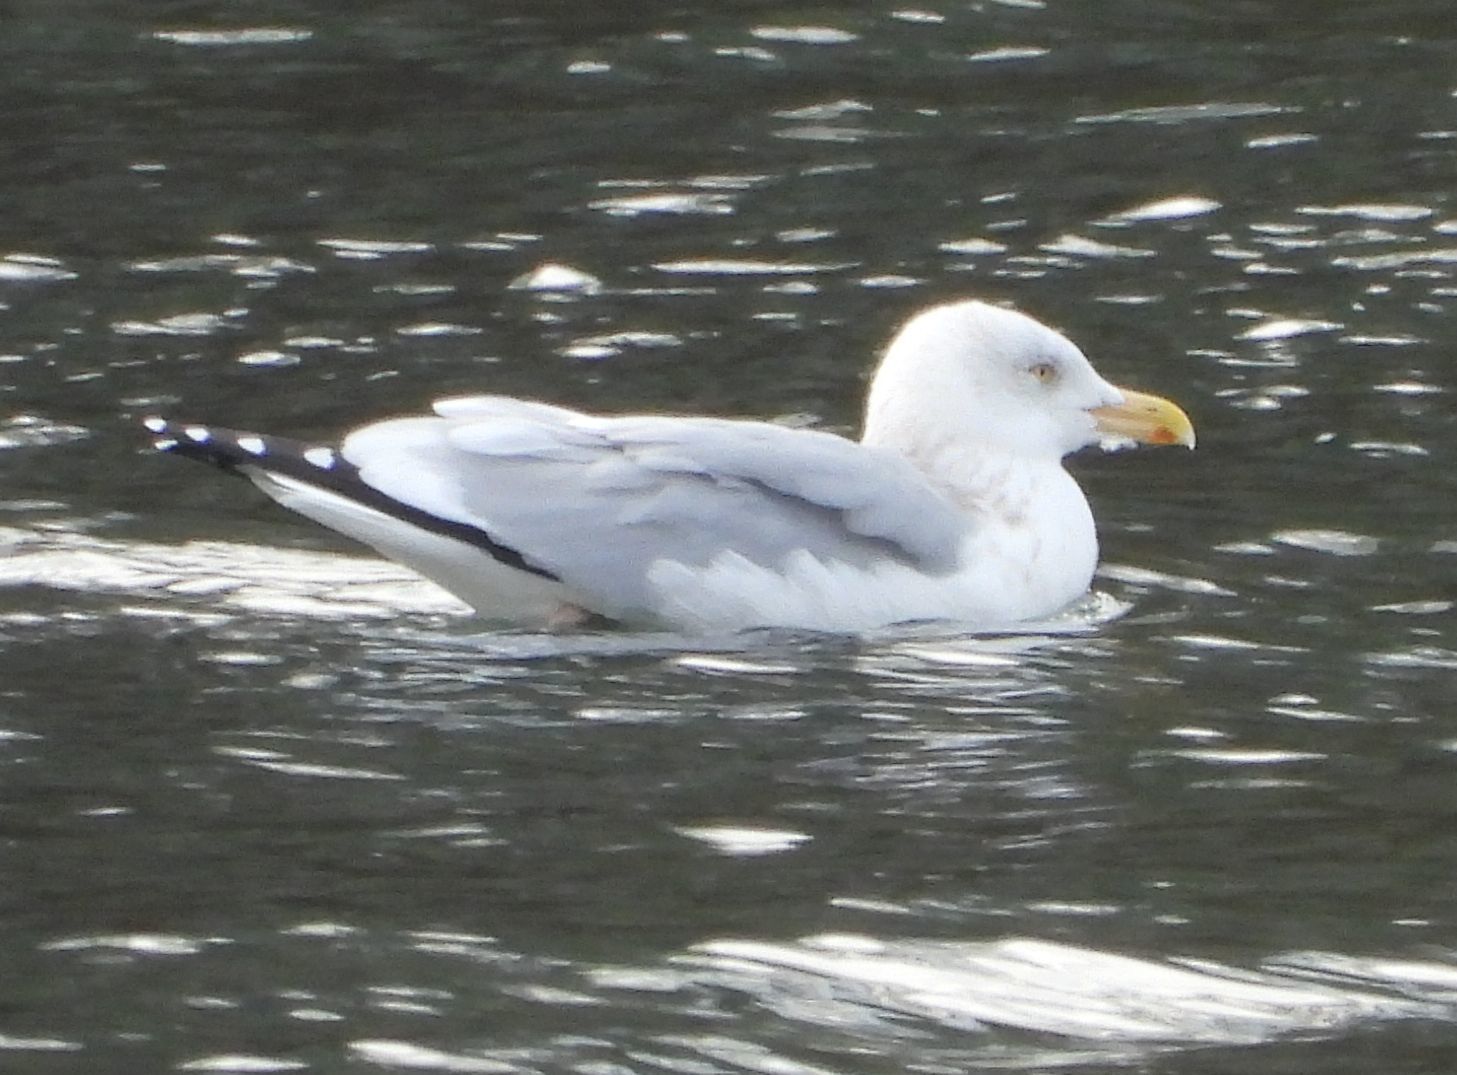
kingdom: Animalia
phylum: Chordata
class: Aves
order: Charadriiformes
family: Laridae
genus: Larus
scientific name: Larus argentatus
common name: Herring gull
